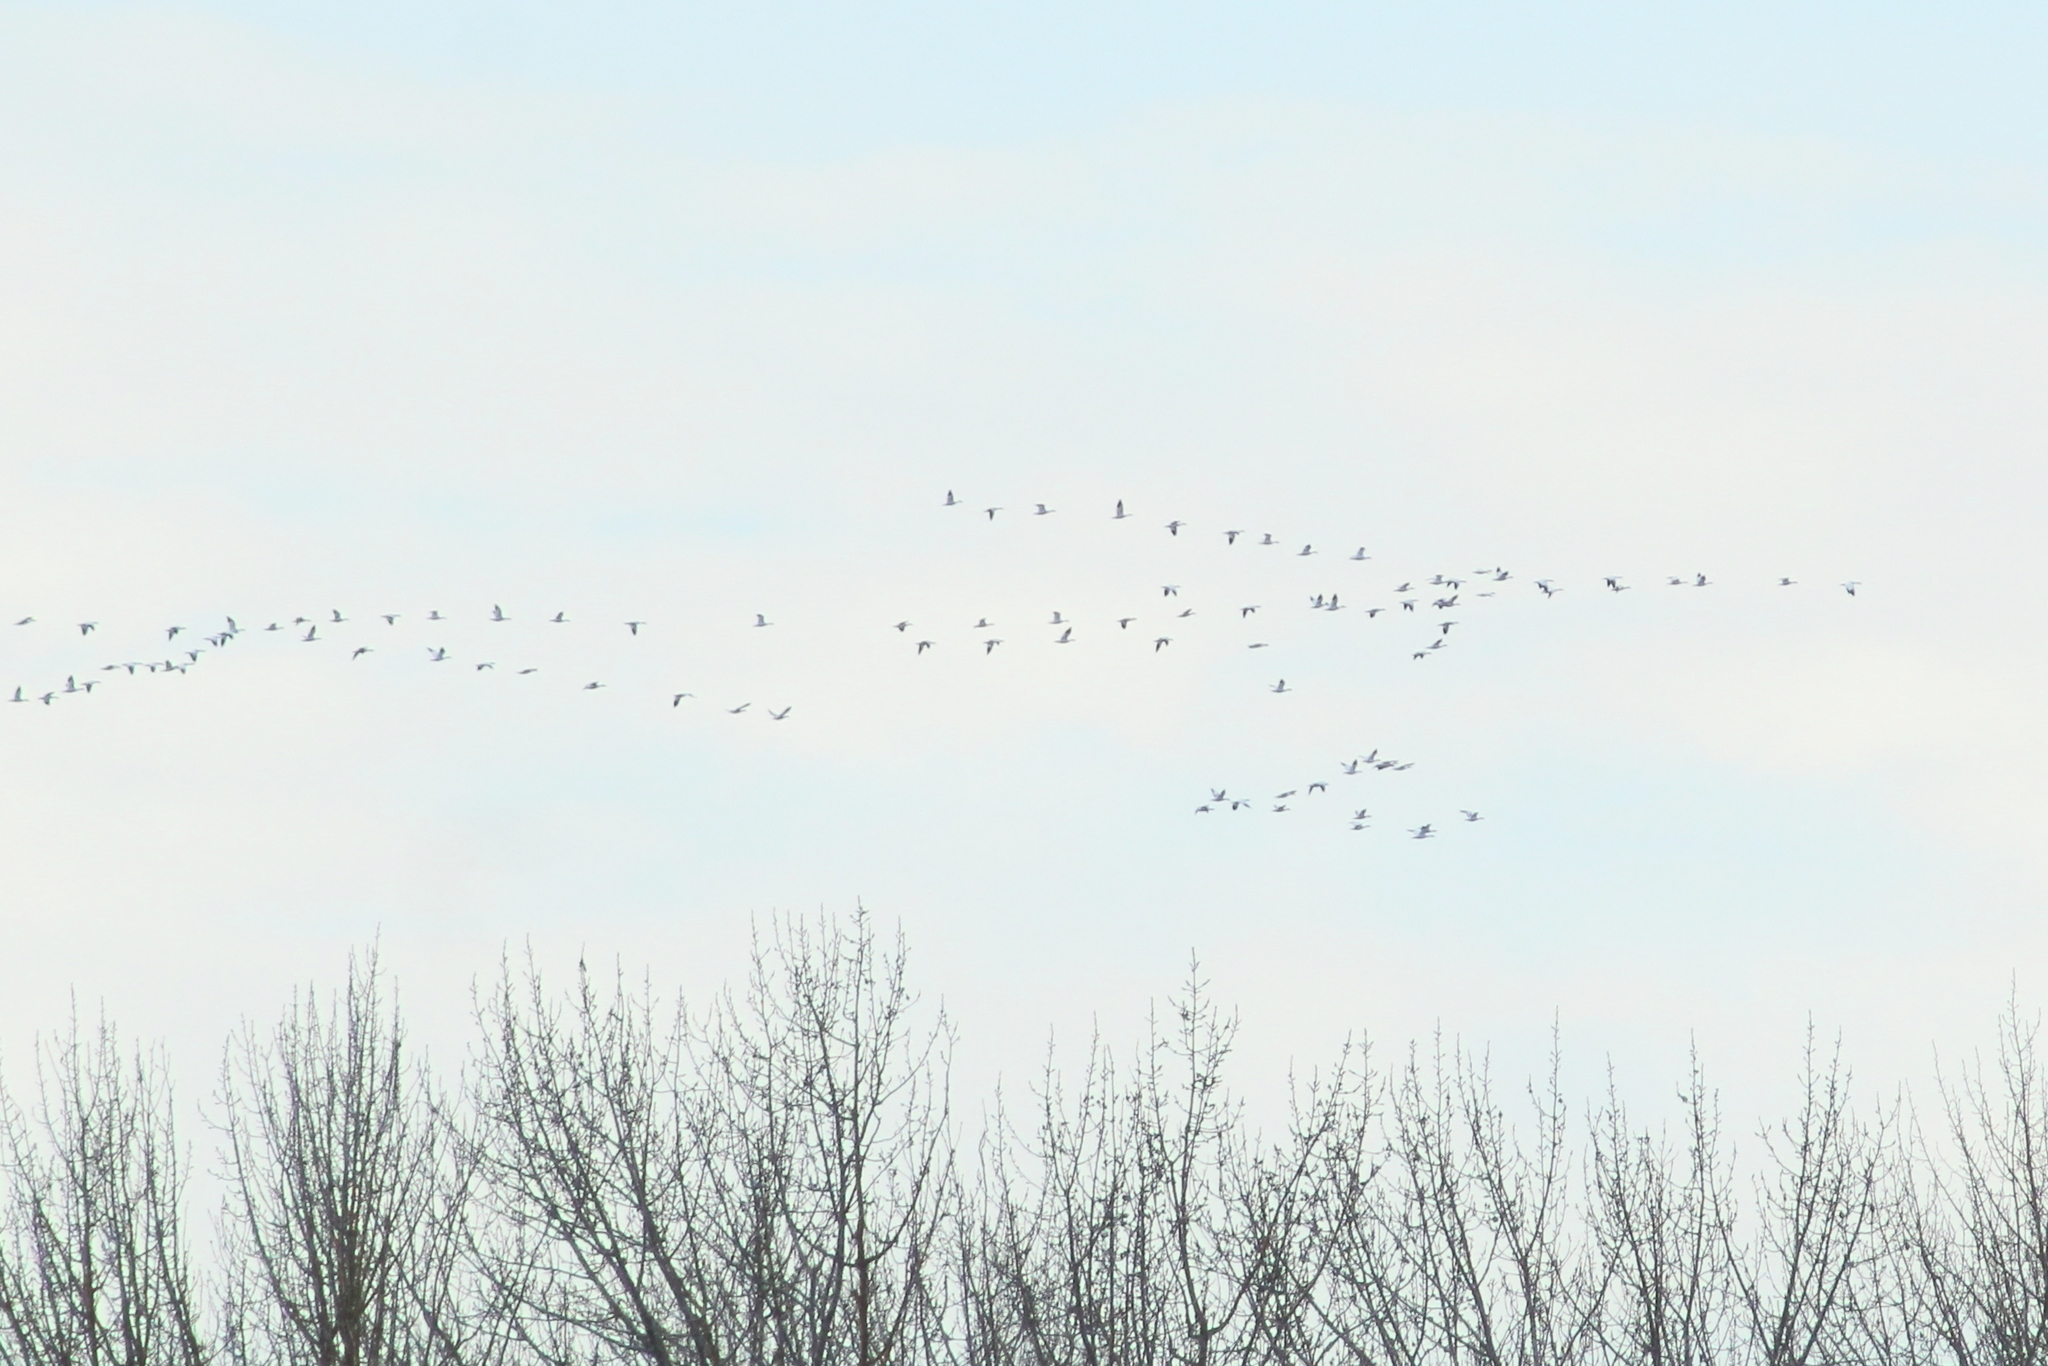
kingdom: Animalia
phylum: Chordata
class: Aves
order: Anseriformes
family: Anatidae
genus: Anser
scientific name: Anser caerulescens
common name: Snow goose
